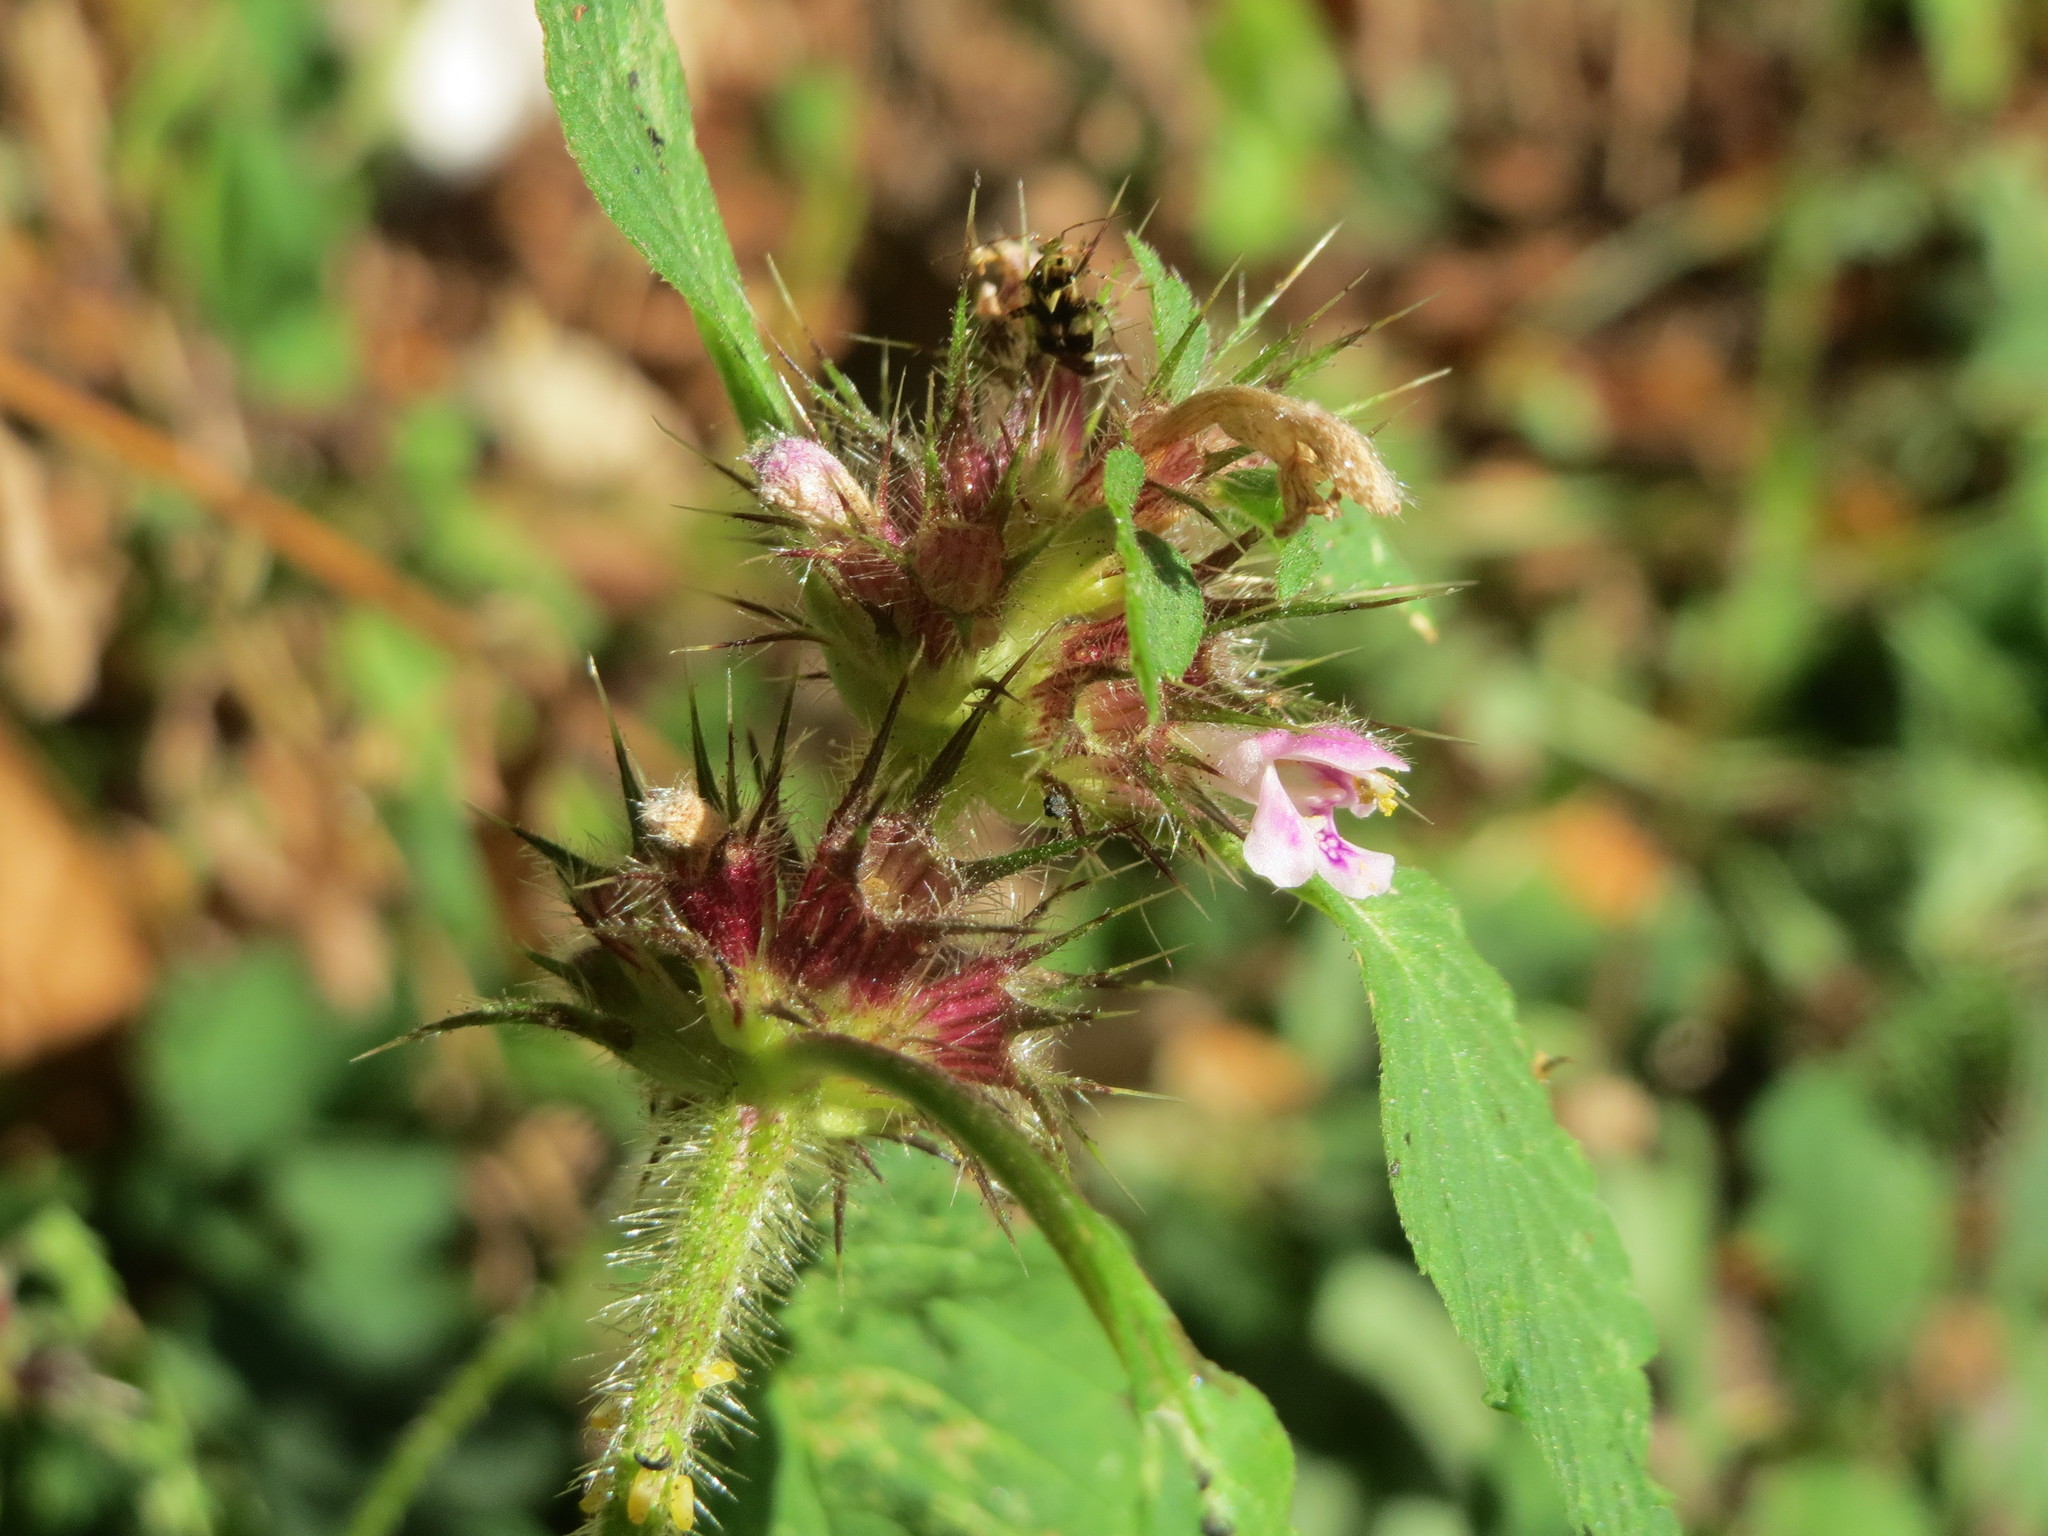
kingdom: Plantae
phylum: Tracheophyta
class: Magnoliopsida
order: Lamiales
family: Lamiaceae
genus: Galeopsis
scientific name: Galeopsis tetrahit
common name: Common hemp-nettle
